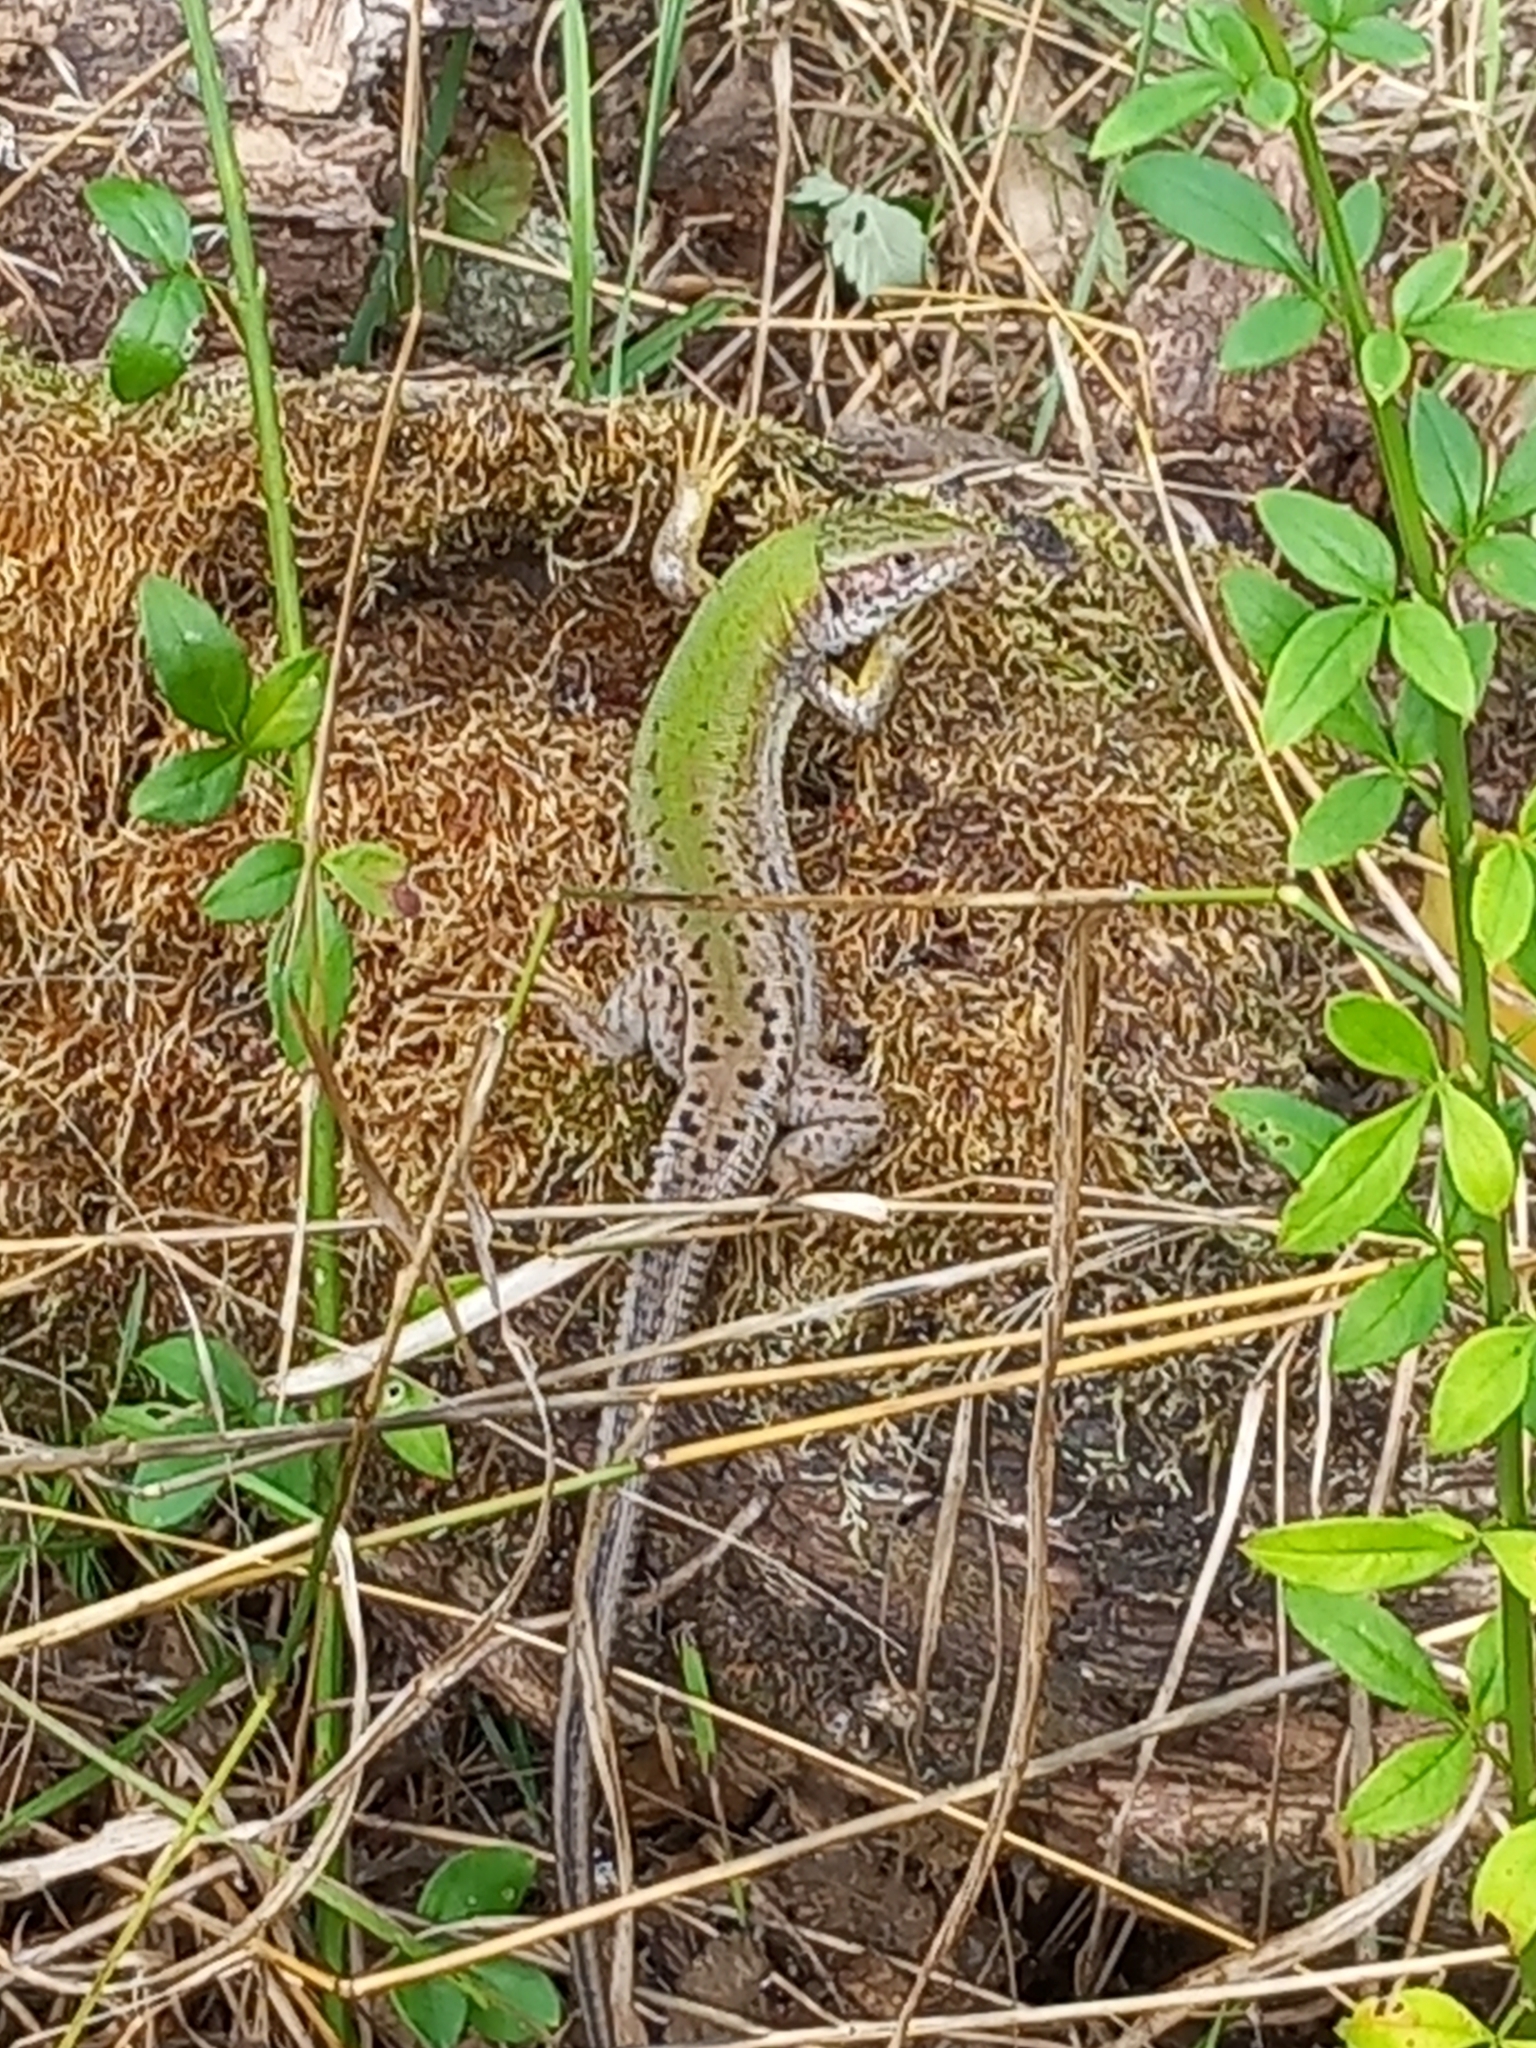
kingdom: Animalia
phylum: Chordata
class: Squamata
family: Lacertidae
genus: Lacerta
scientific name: Lacerta viridis
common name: European green lizard
